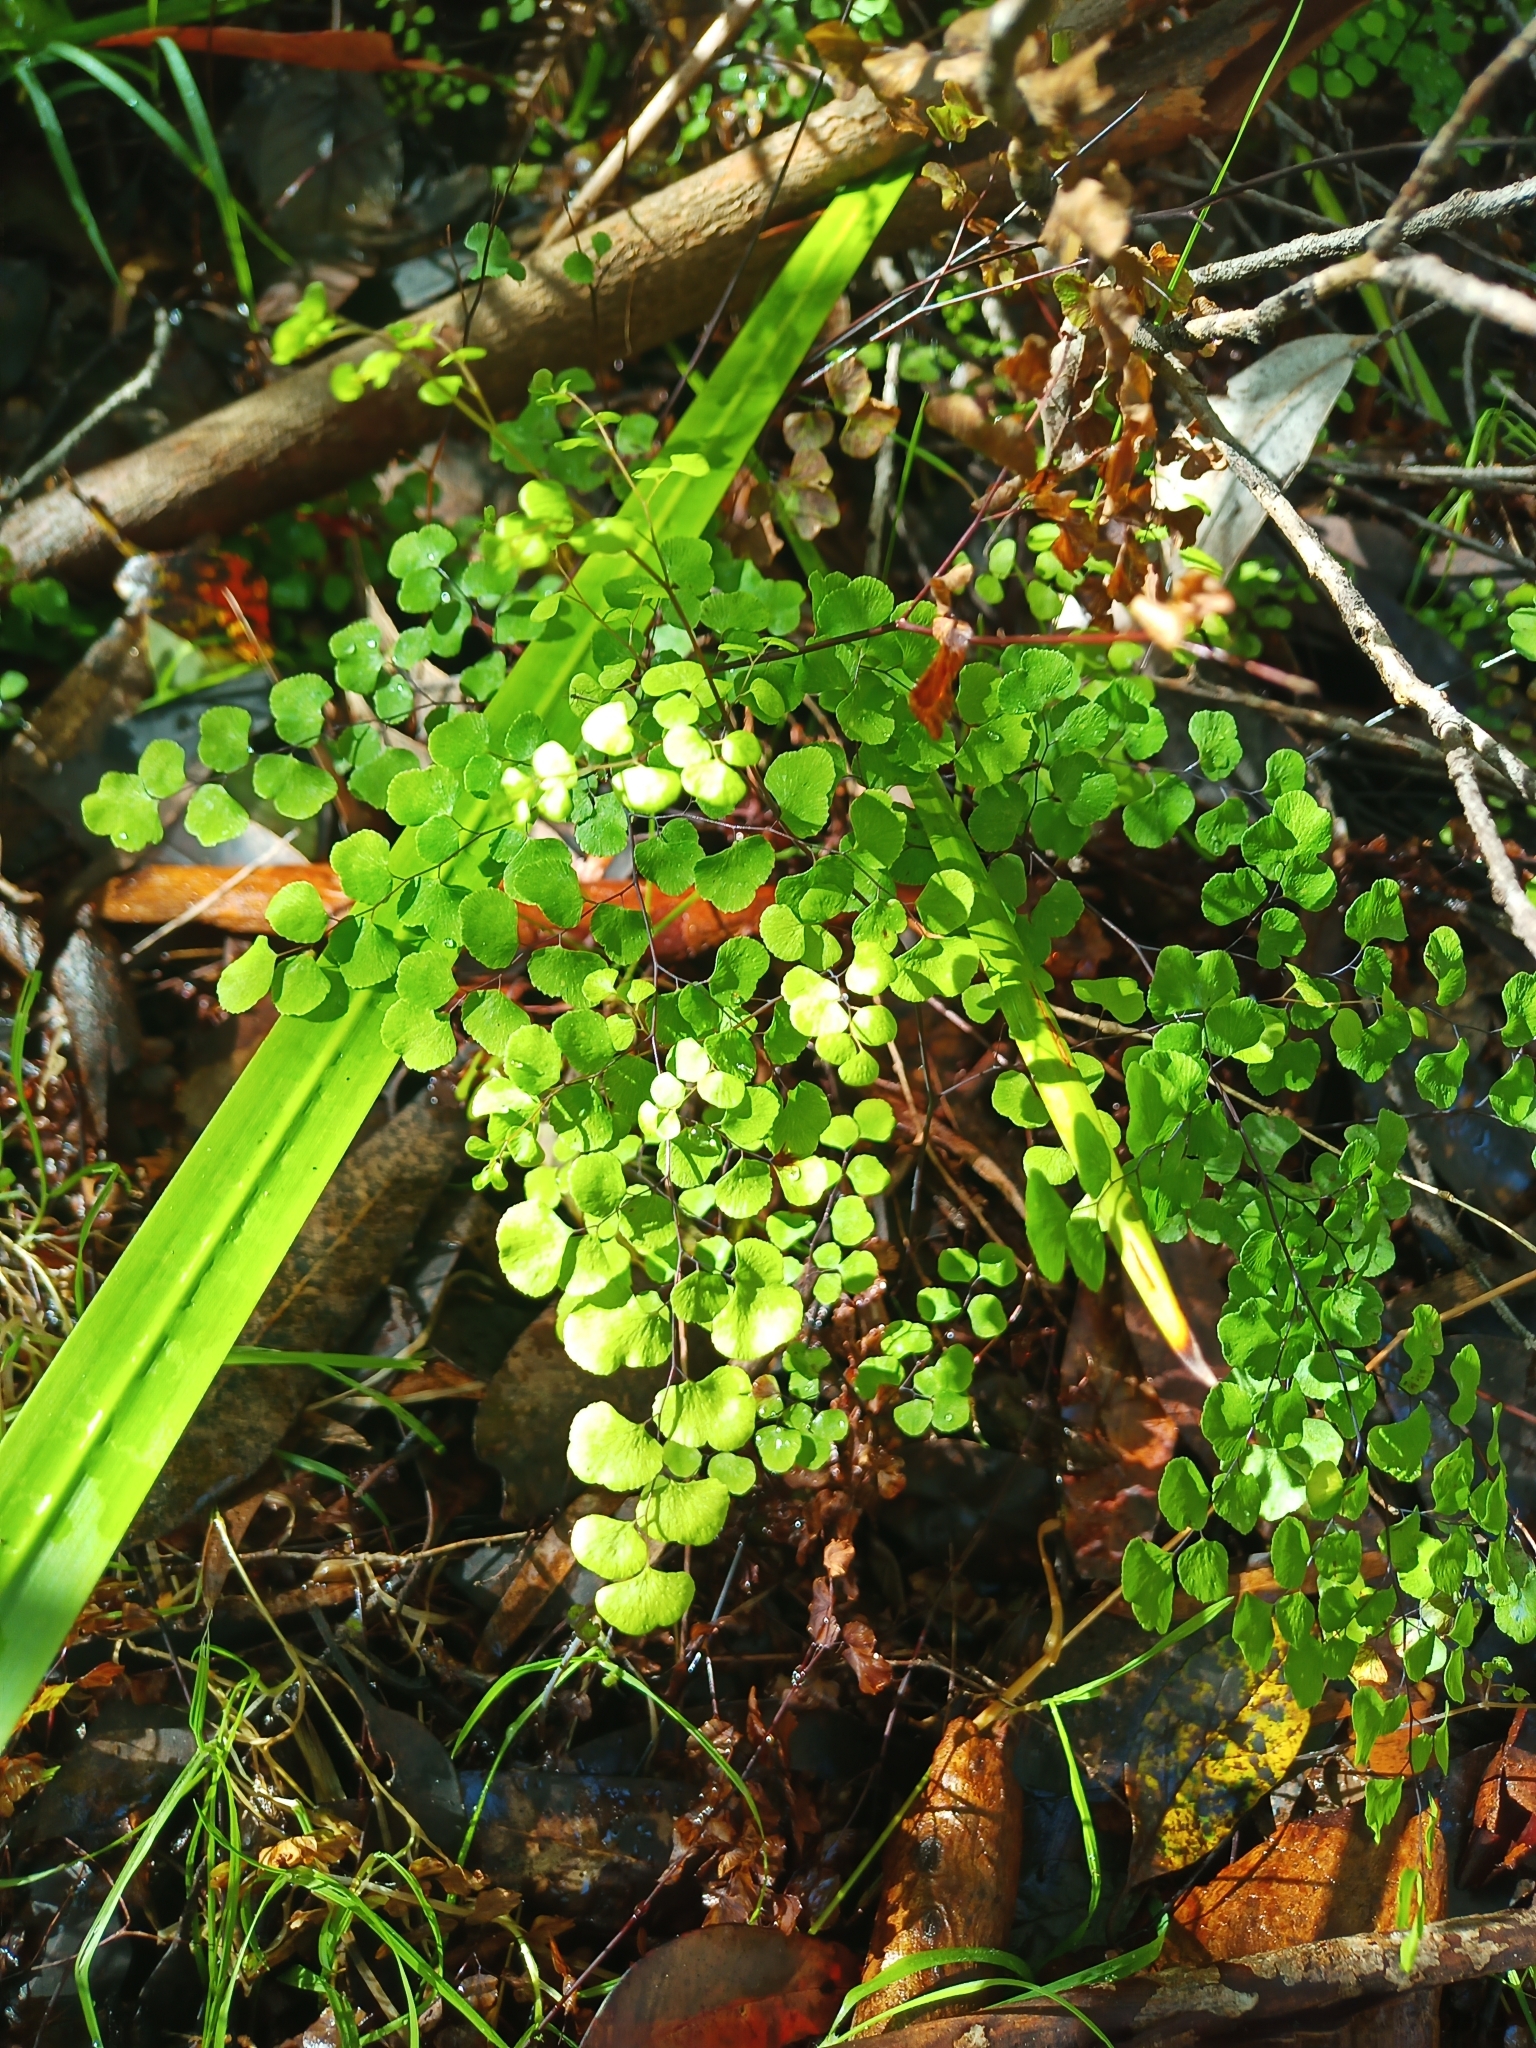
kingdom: Plantae
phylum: Tracheophyta
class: Polypodiopsida
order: Polypodiales
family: Pteridaceae
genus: Adiantum
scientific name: Adiantum aethiopicum
